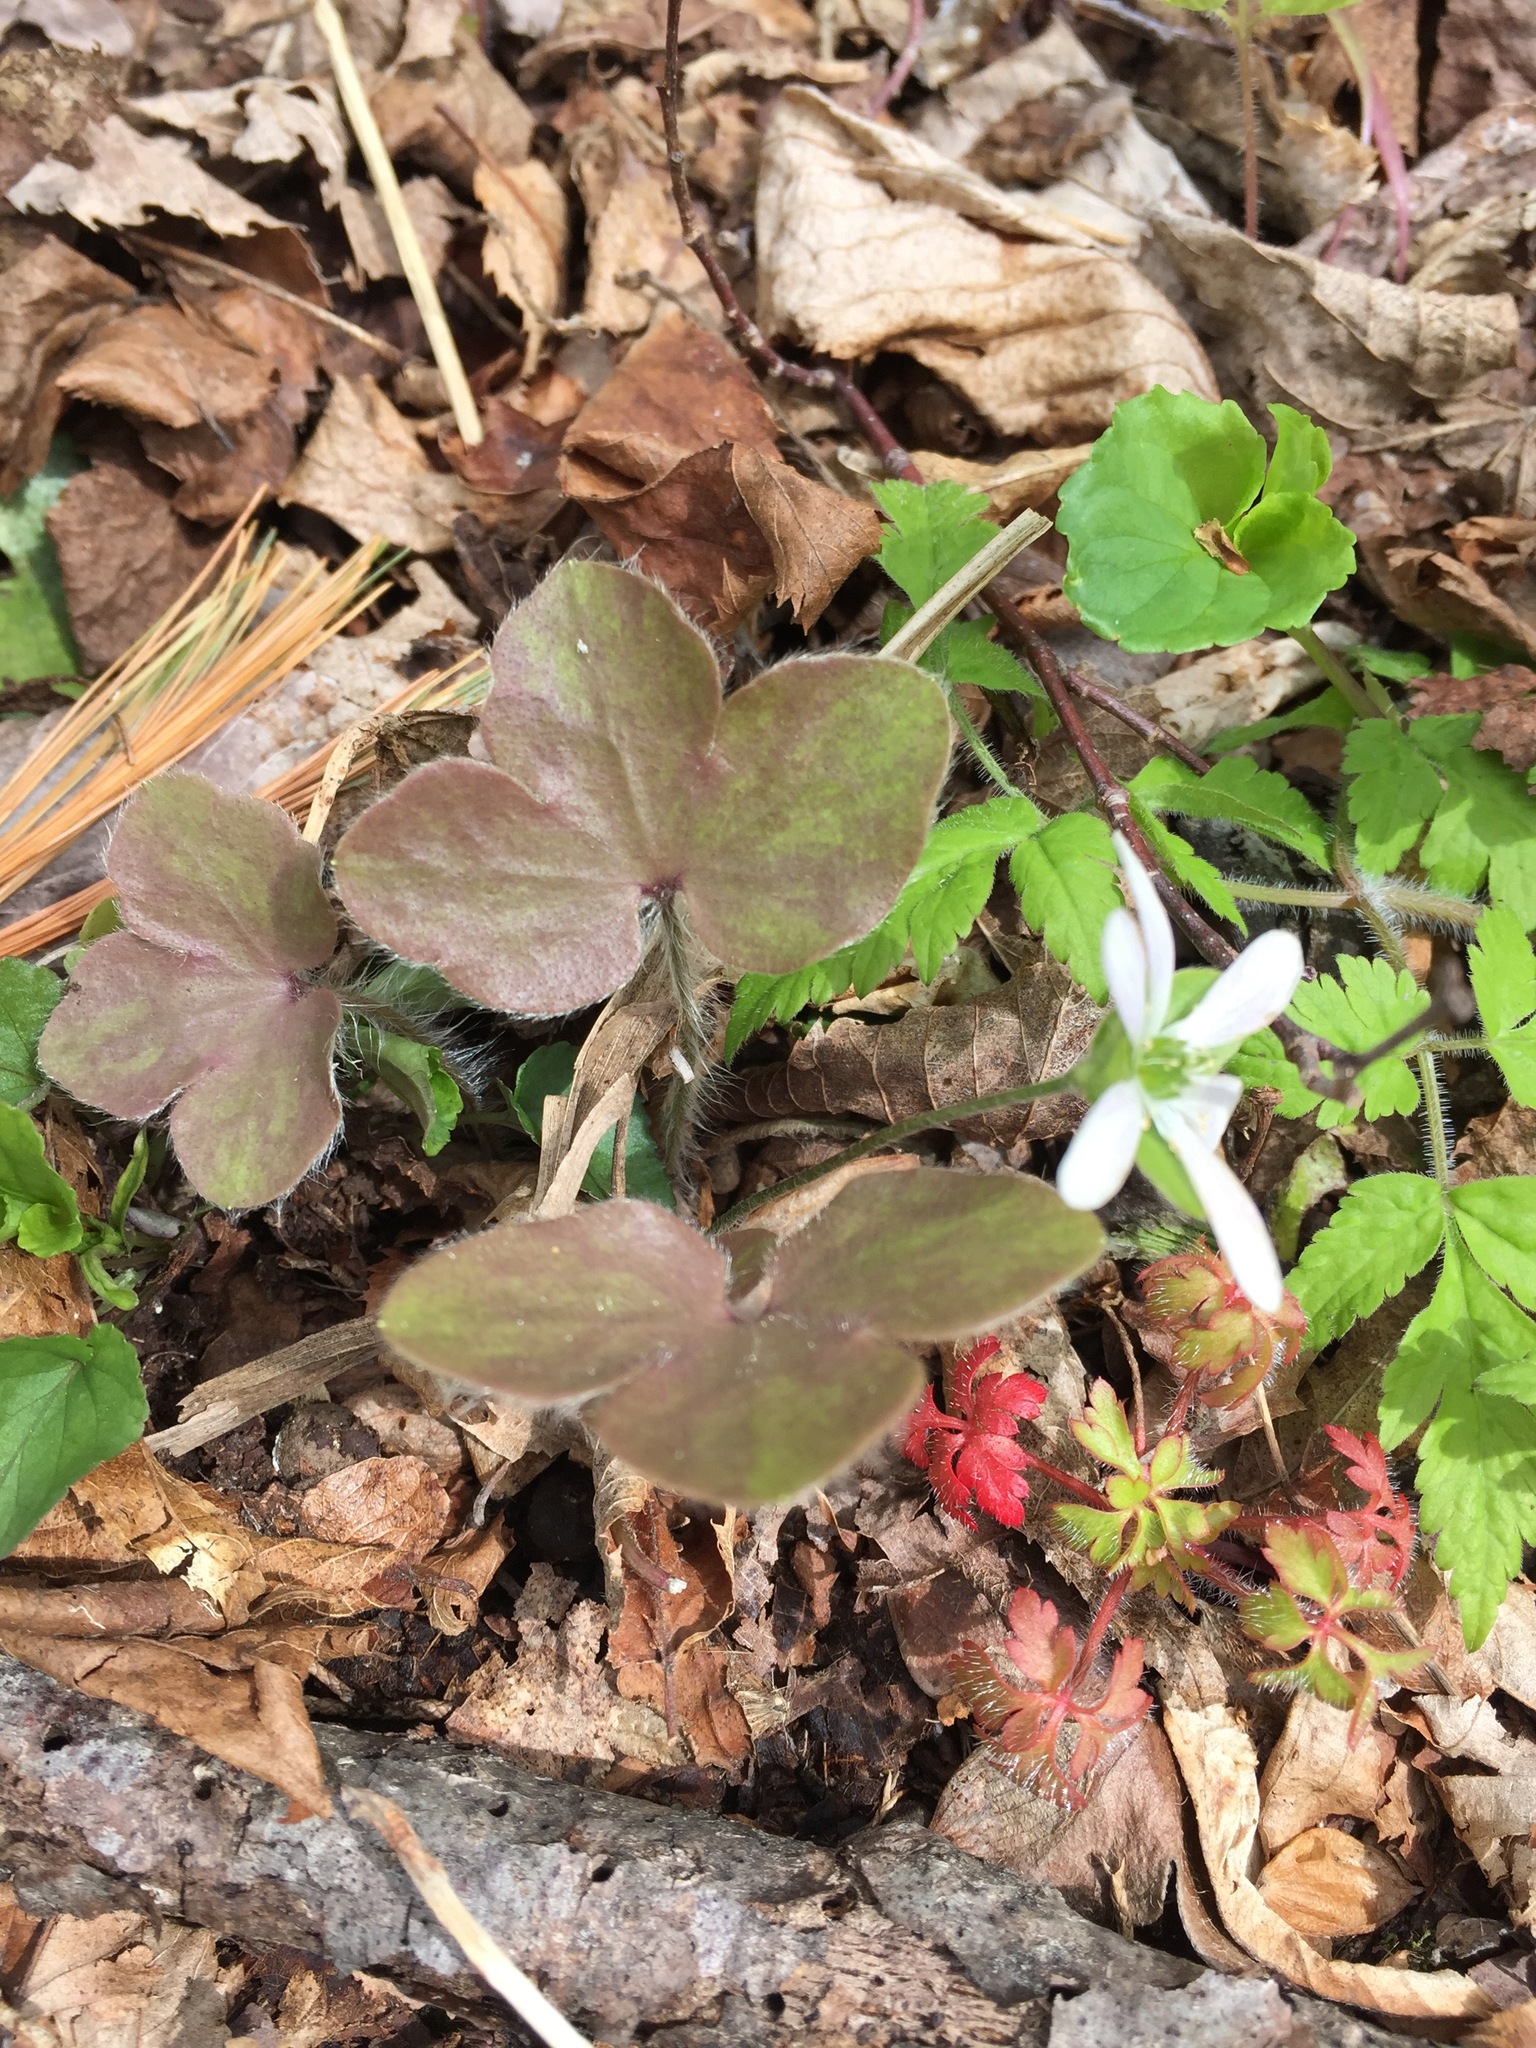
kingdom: Plantae
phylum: Tracheophyta
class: Magnoliopsida
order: Ranunculales
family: Ranunculaceae
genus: Hepatica
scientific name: Hepatica americana
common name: American hepatica
